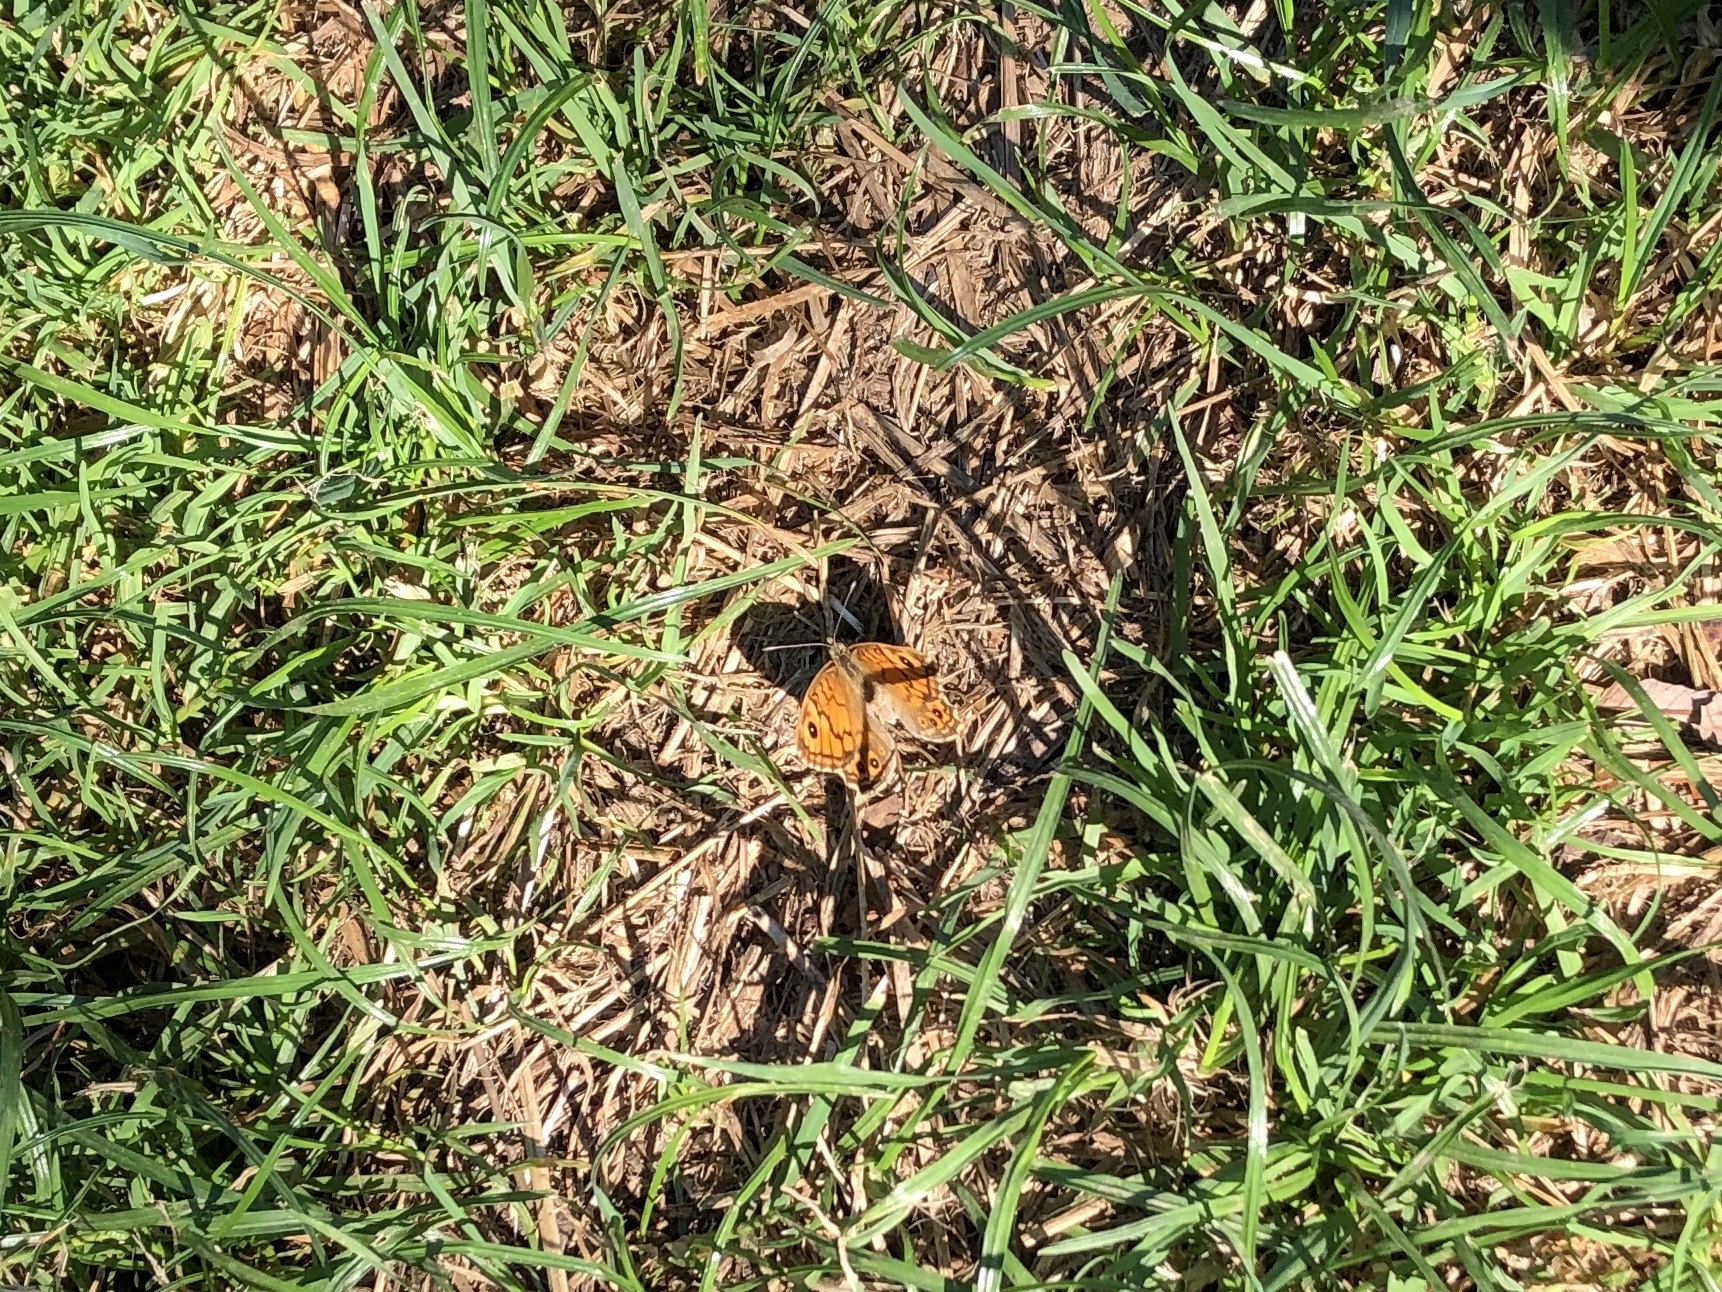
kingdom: Animalia
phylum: Arthropoda
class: Insecta
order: Lepidoptera
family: Nymphalidae
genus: Pararge
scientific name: Pararge Lasiommata megera
